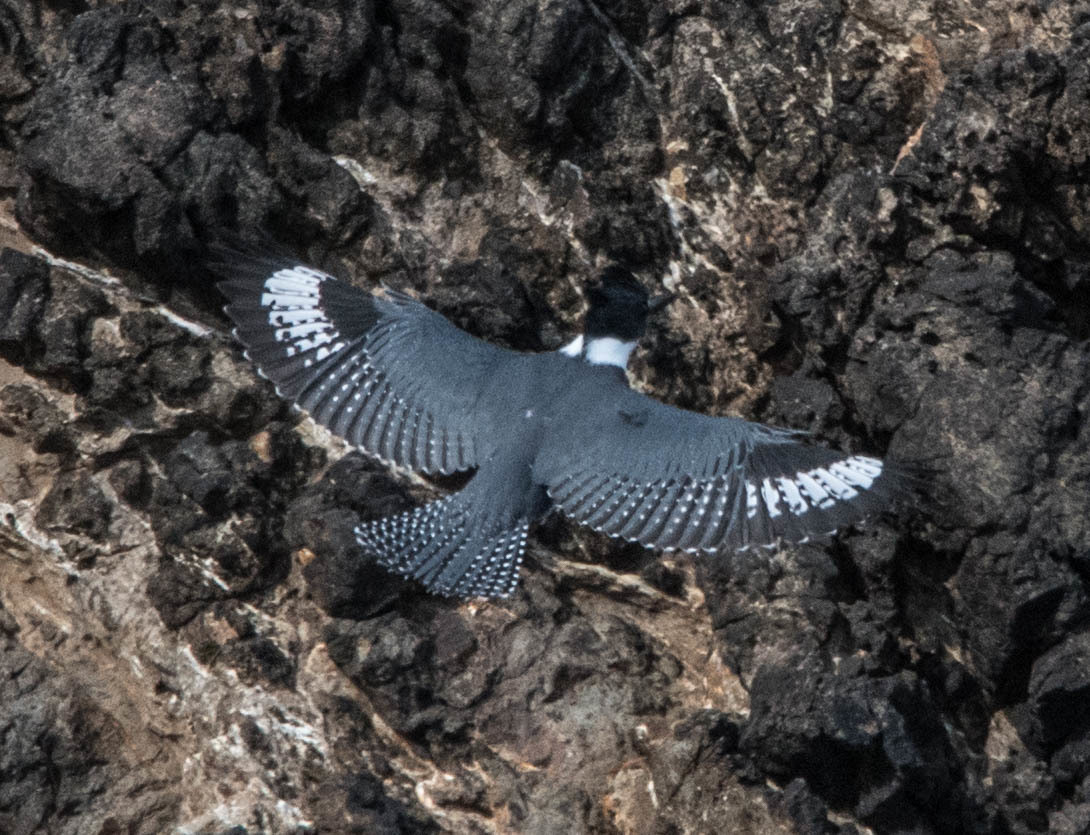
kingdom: Animalia
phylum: Chordata
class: Aves
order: Coraciiformes
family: Alcedinidae
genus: Megaceryle
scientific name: Megaceryle alcyon
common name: Belted kingfisher
